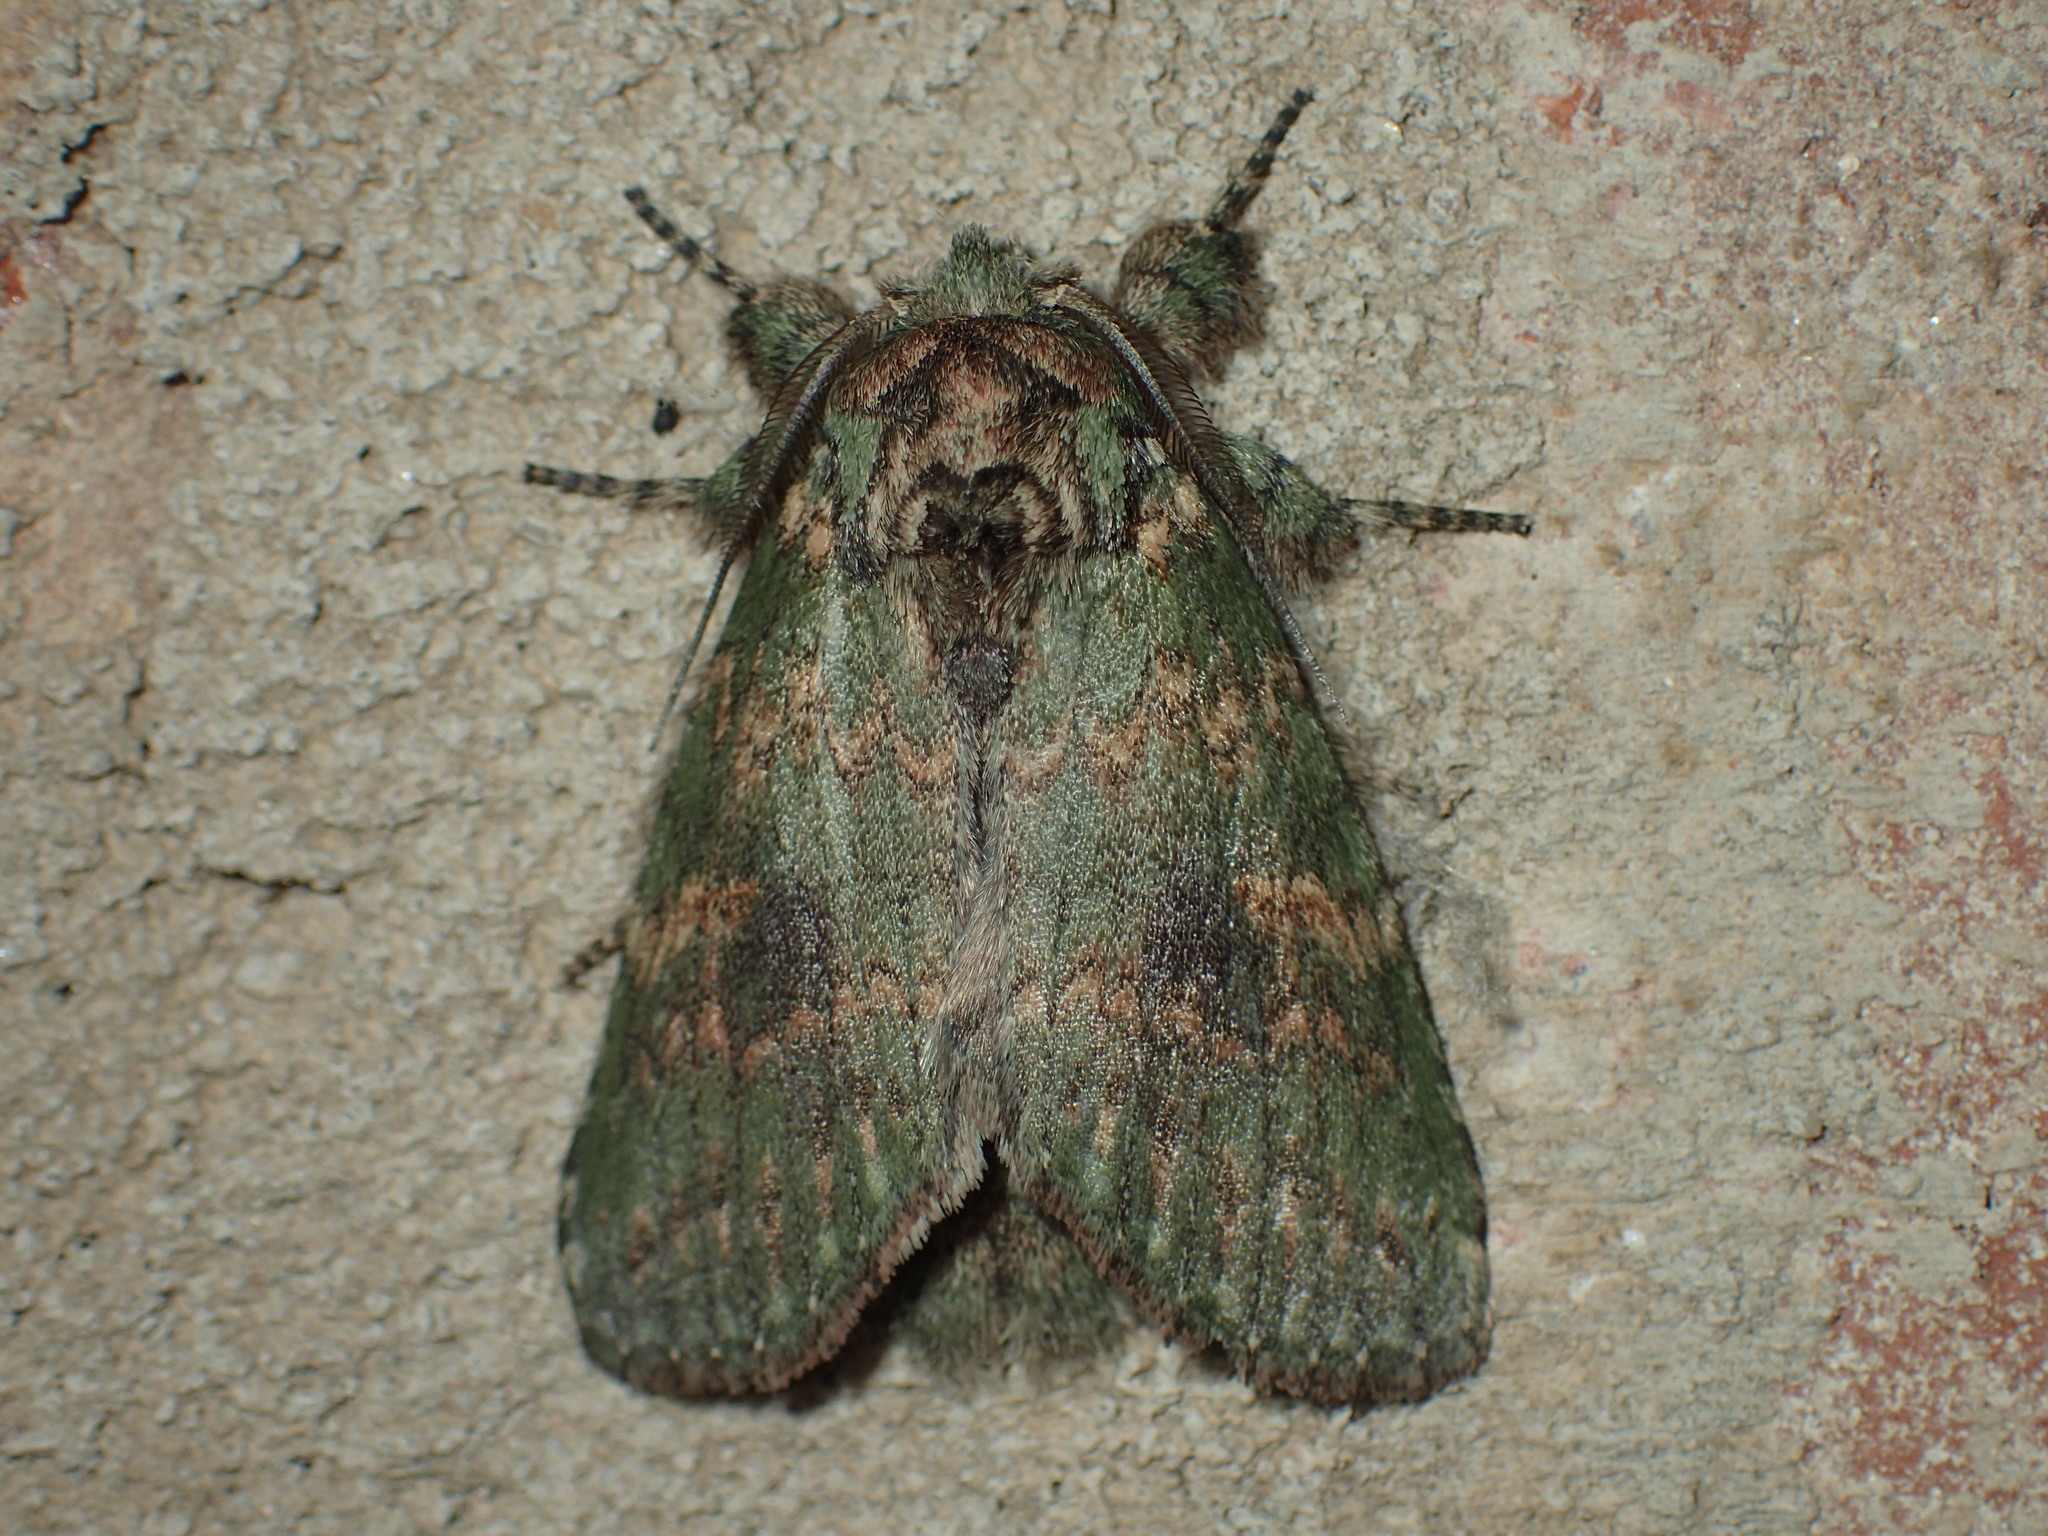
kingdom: Animalia
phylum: Arthropoda
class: Insecta
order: Lepidoptera
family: Notodontidae
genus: Disphragis
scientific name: Disphragis Cecrita biundata
